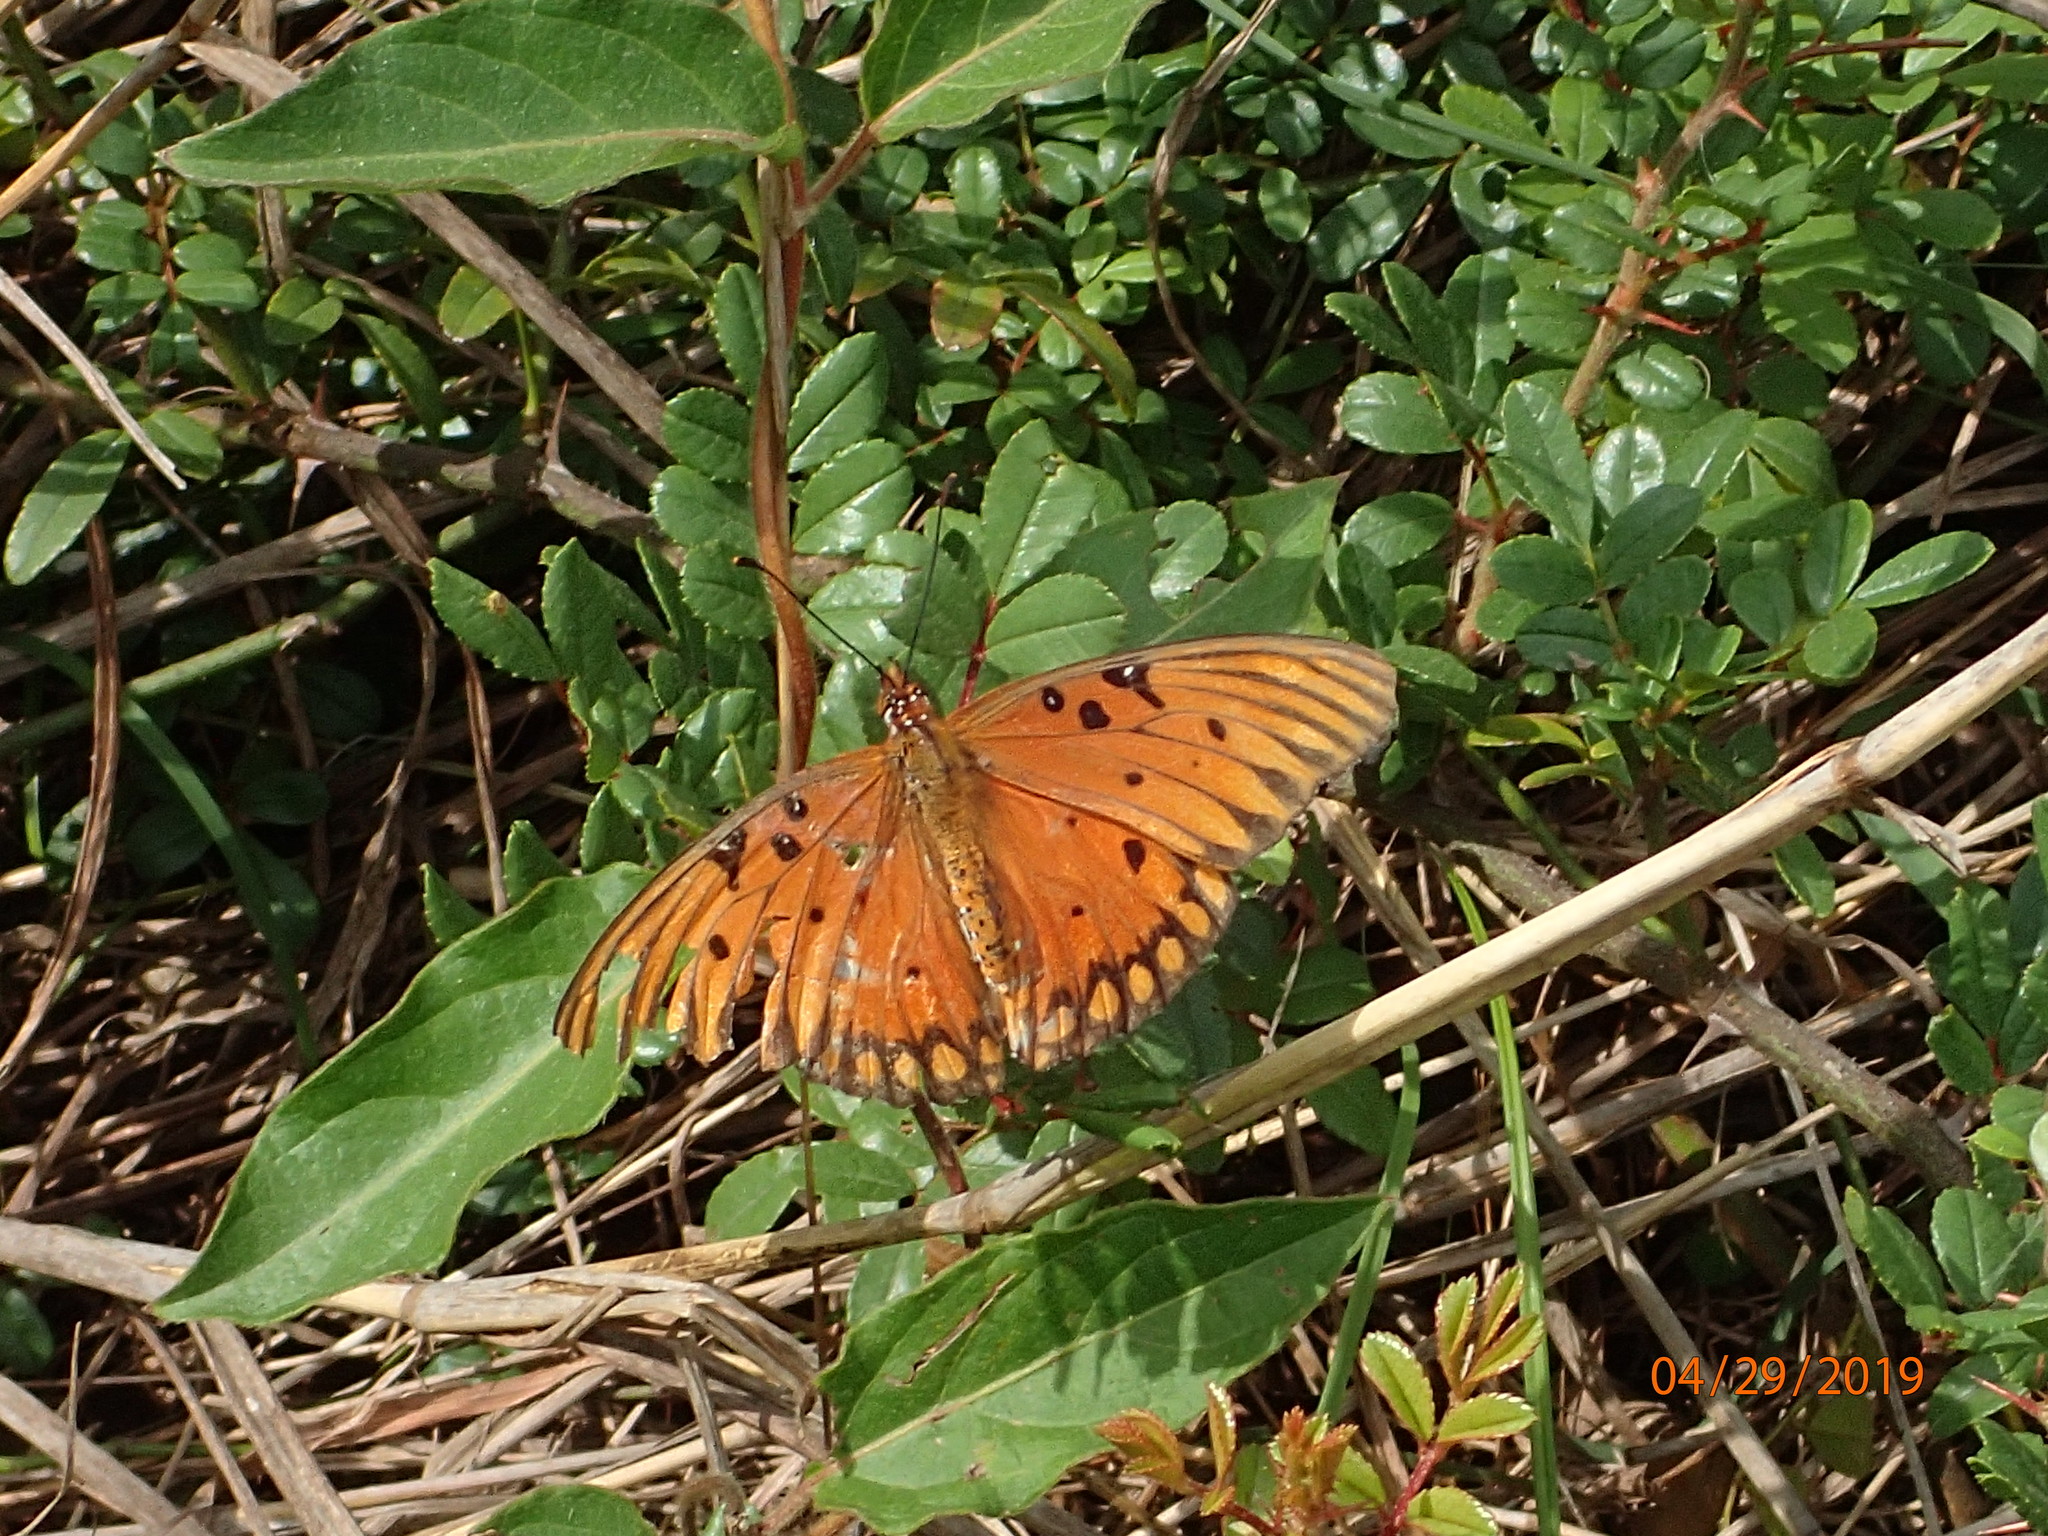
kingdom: Animalia
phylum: Arthropoda
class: Insecta
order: Lepidoptera
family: Nymphalidae
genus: Dione
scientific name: Dione vanillae
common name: Gulf fritillary
